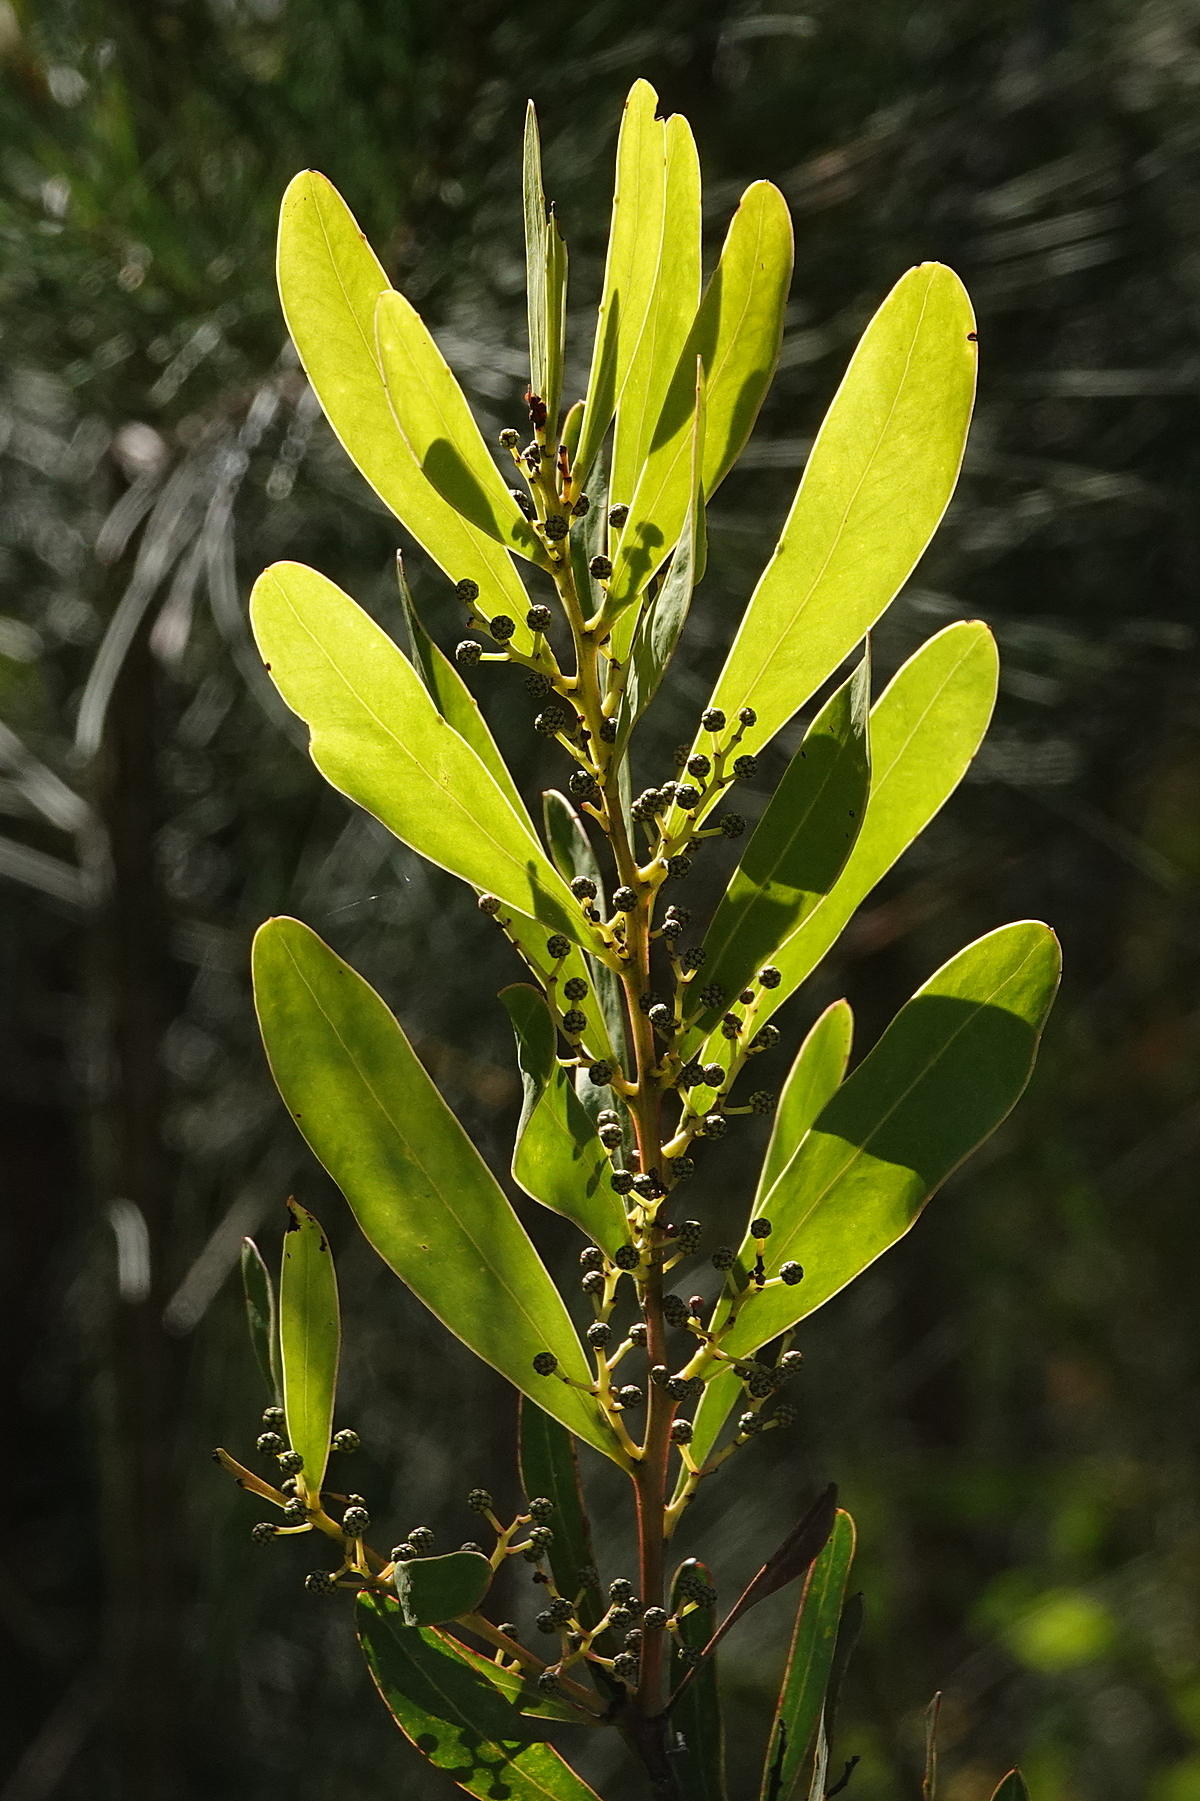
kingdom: Plantae
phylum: Tracheophyta
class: Magnoliopsida
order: Fabales
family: Fabaceae
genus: Acacia
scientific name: Acacia kydrensis
